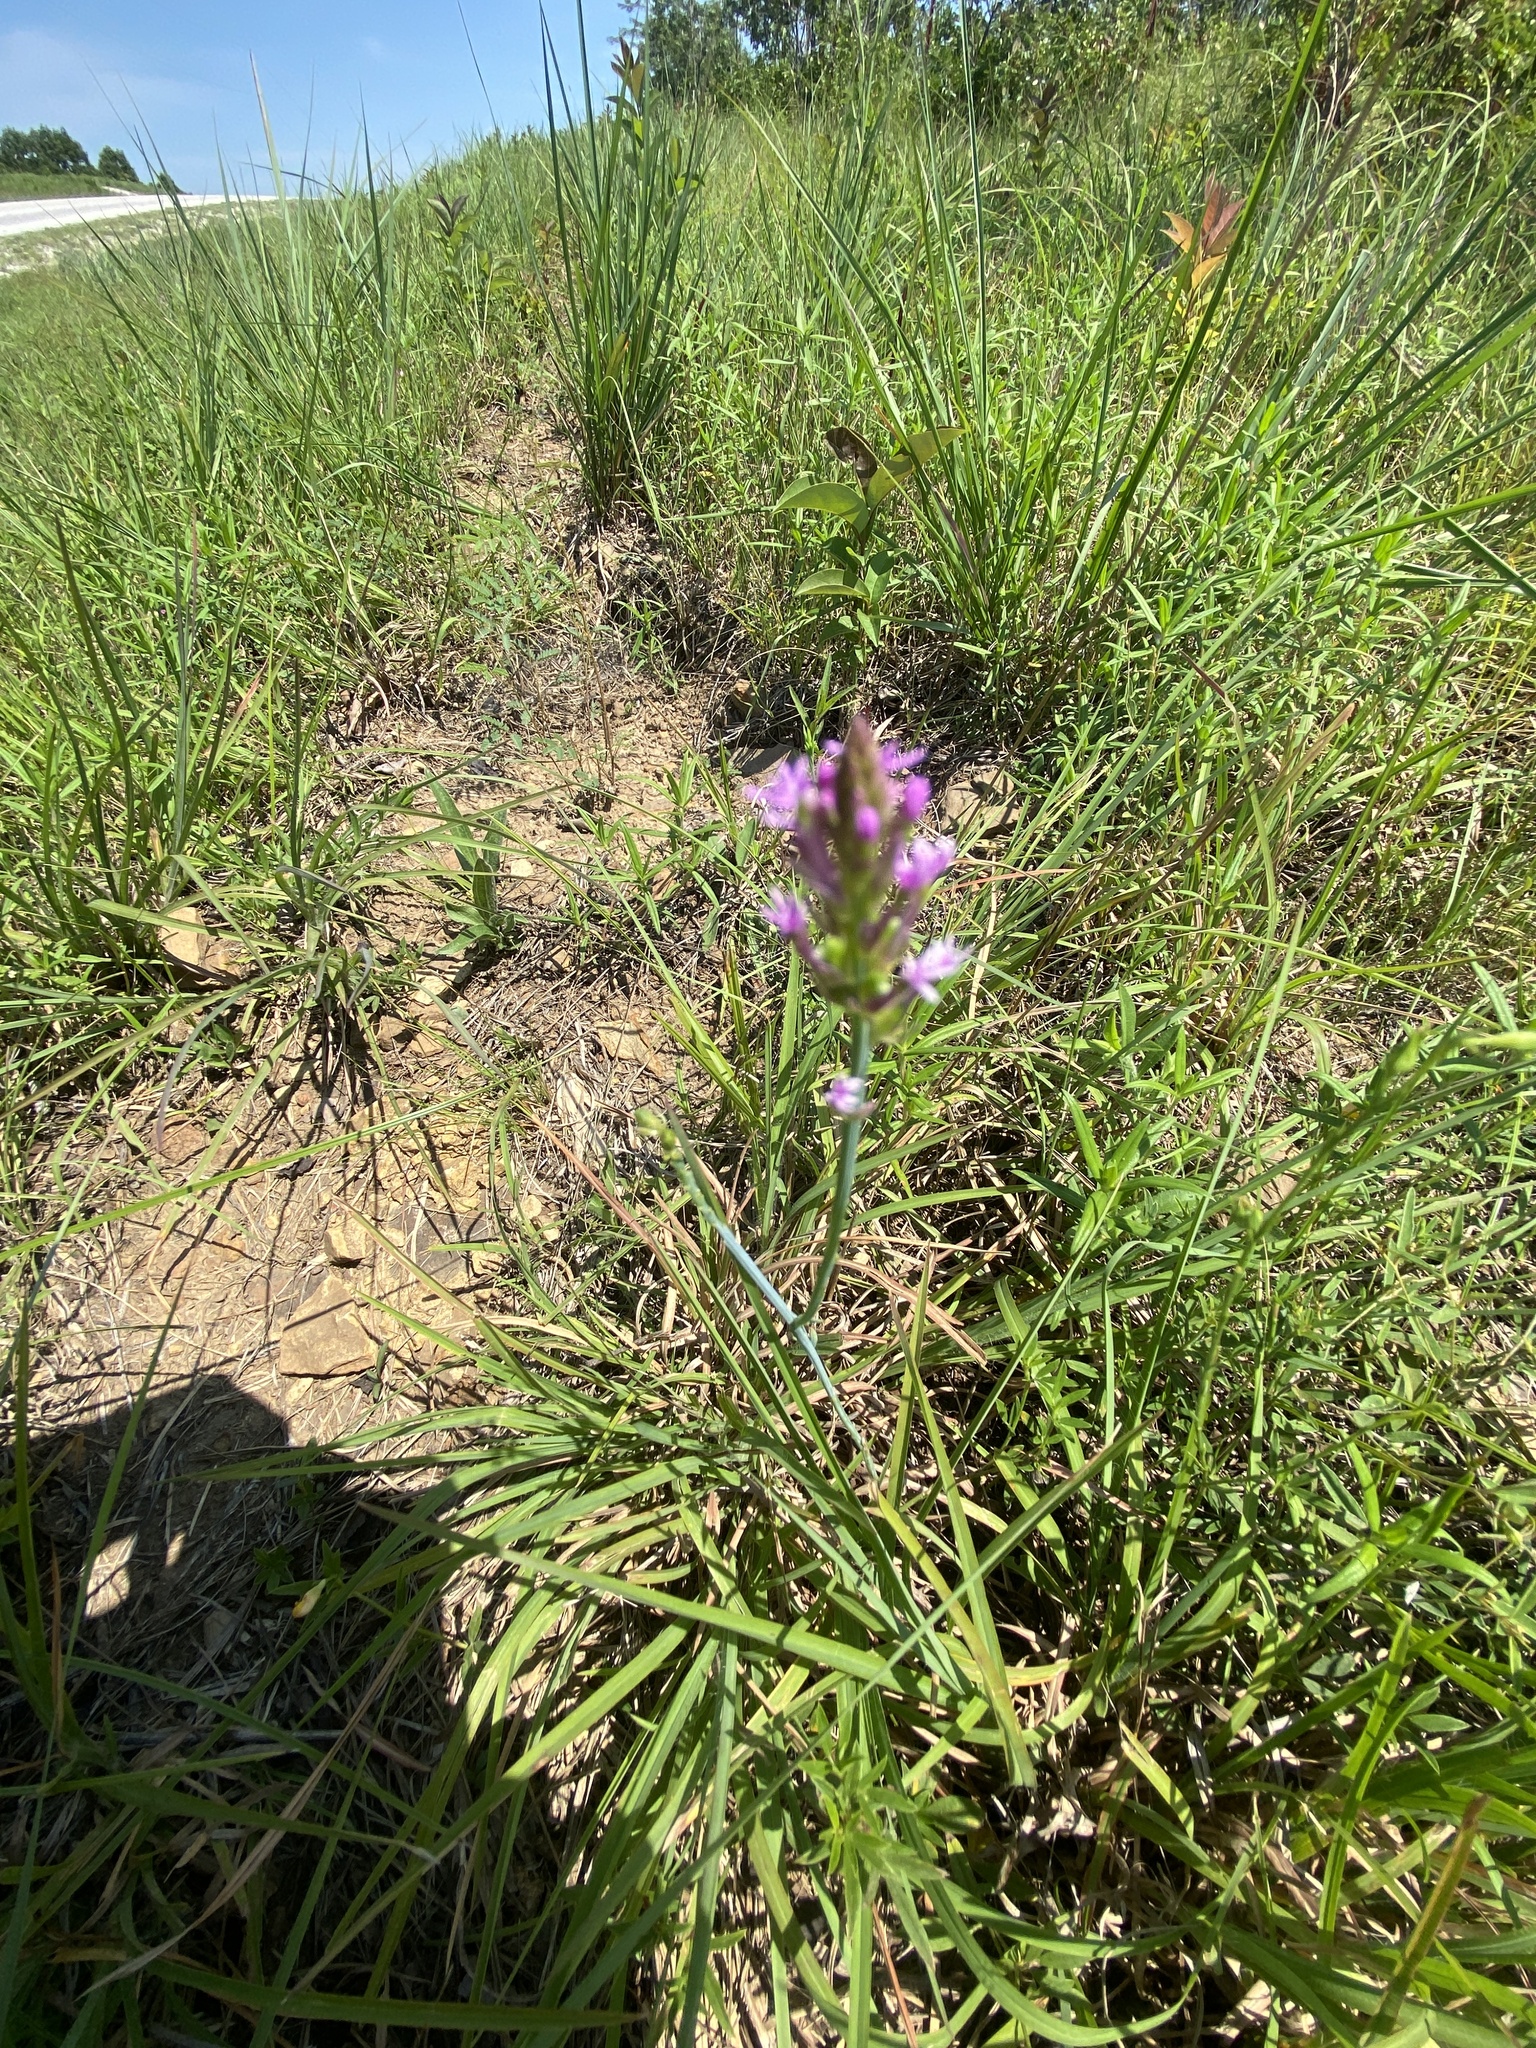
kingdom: Plantae
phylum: Tracheophyta
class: Magnoliopsida
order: Fabales
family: Polygalaceae
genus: Polygala
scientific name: Polygala incarnata
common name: Pink milkwort
